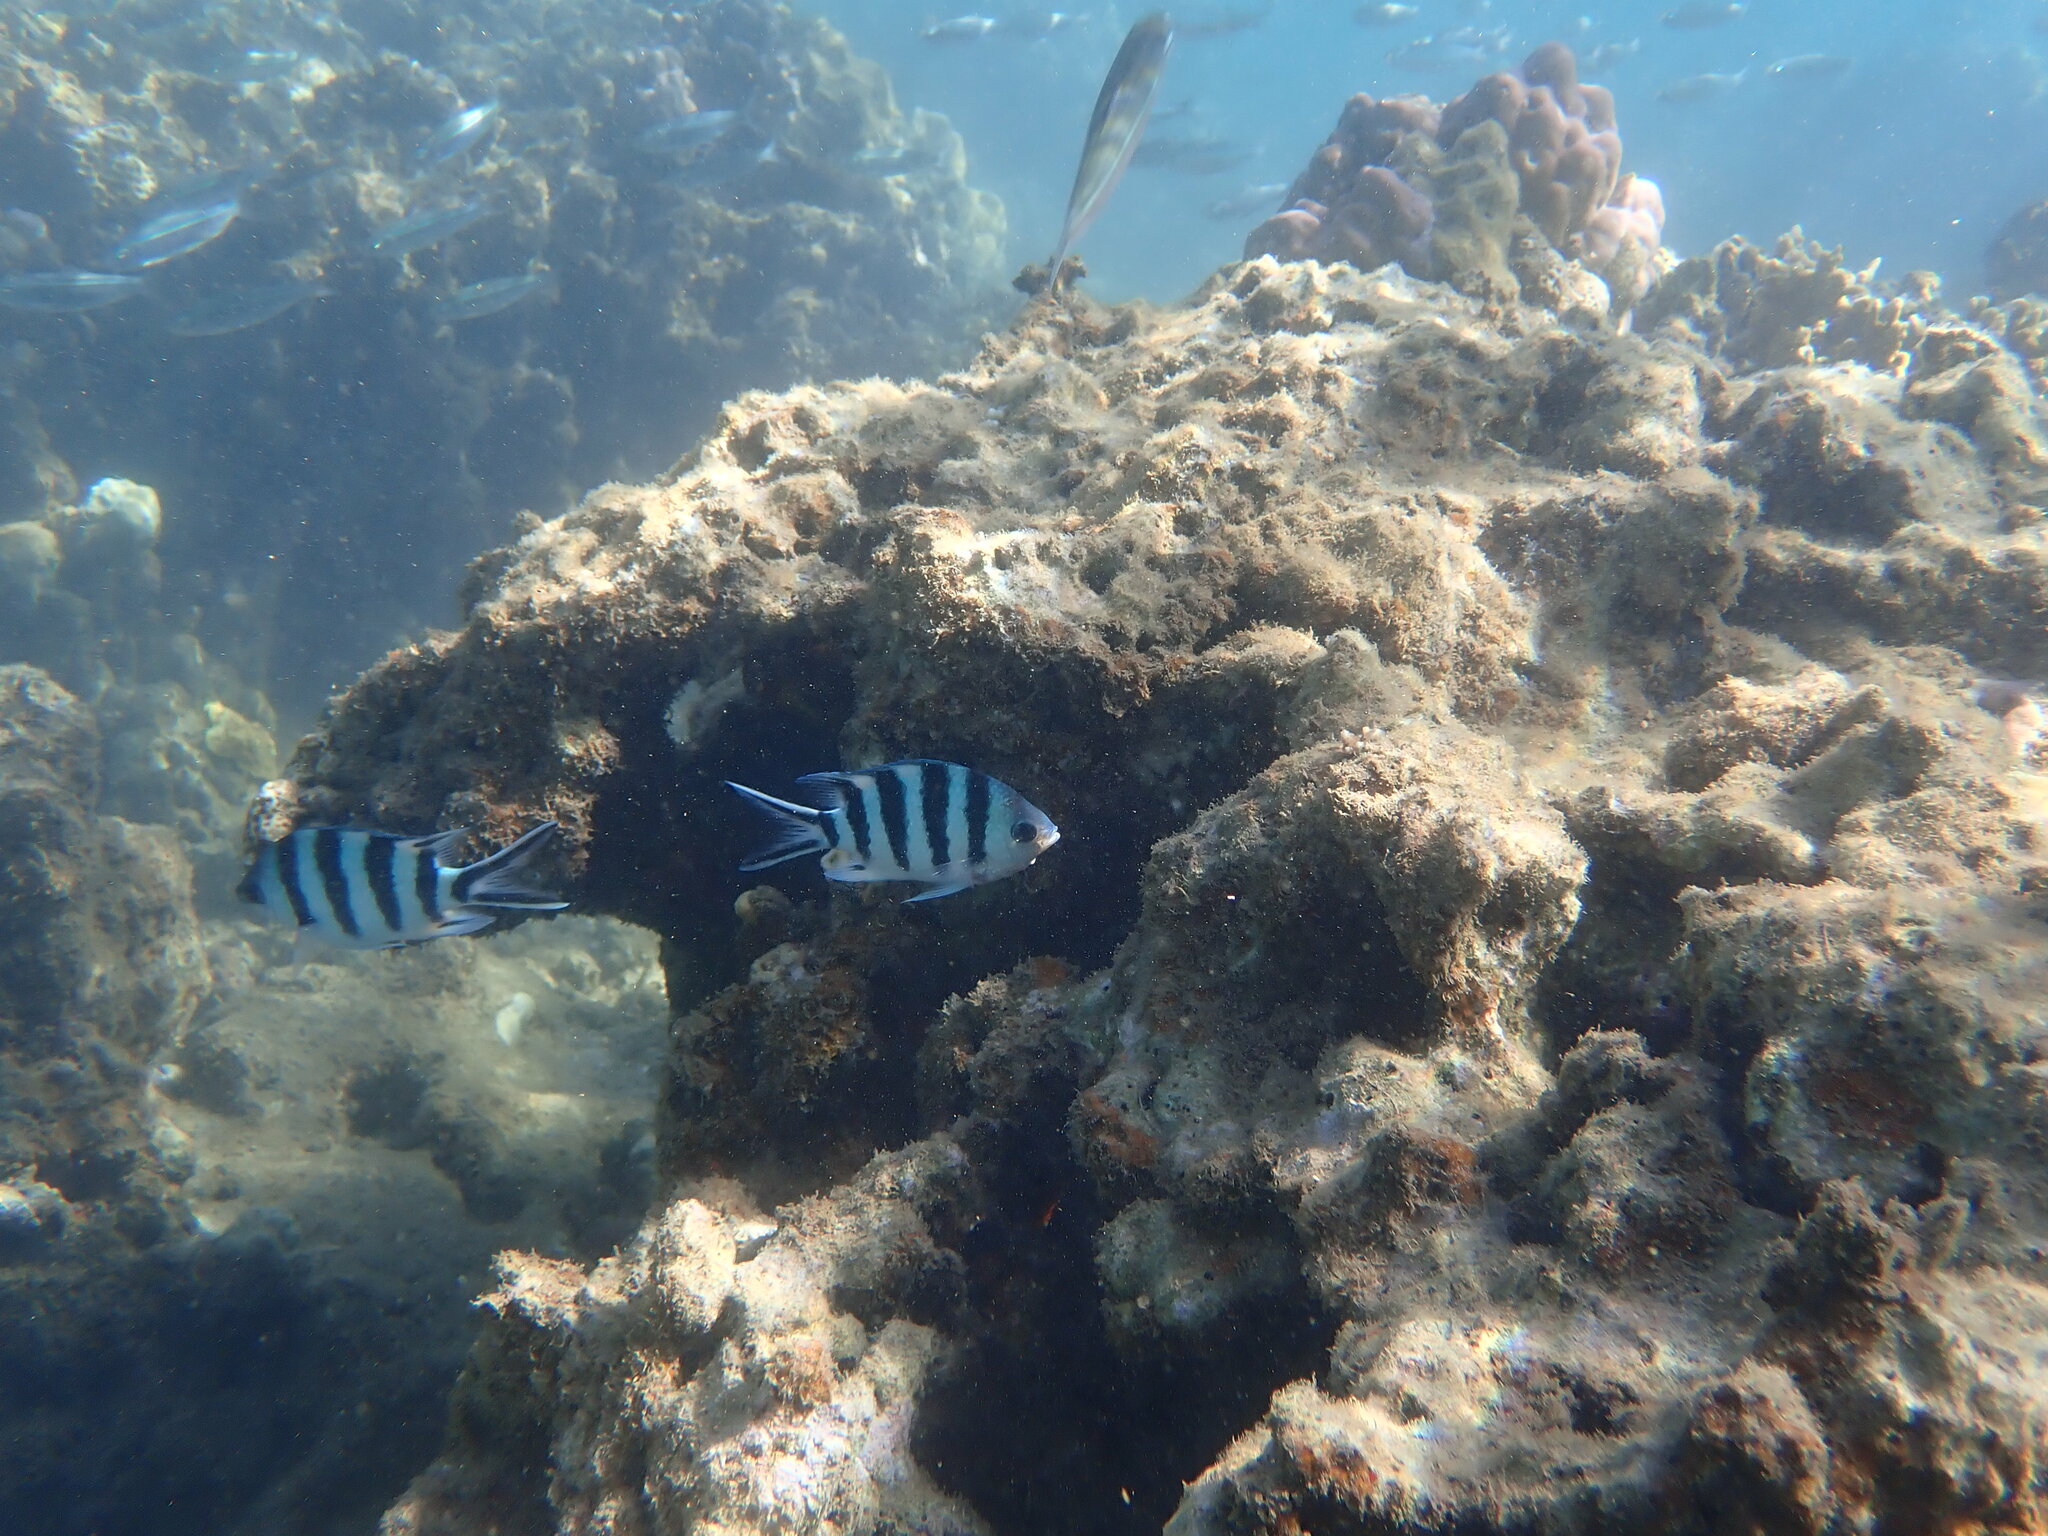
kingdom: Animalia
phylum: Chordata
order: Perciformes
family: Pomacentridae
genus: Abudefduf
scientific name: Abudefduf sexfasciatus
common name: Scissortail sergeant
